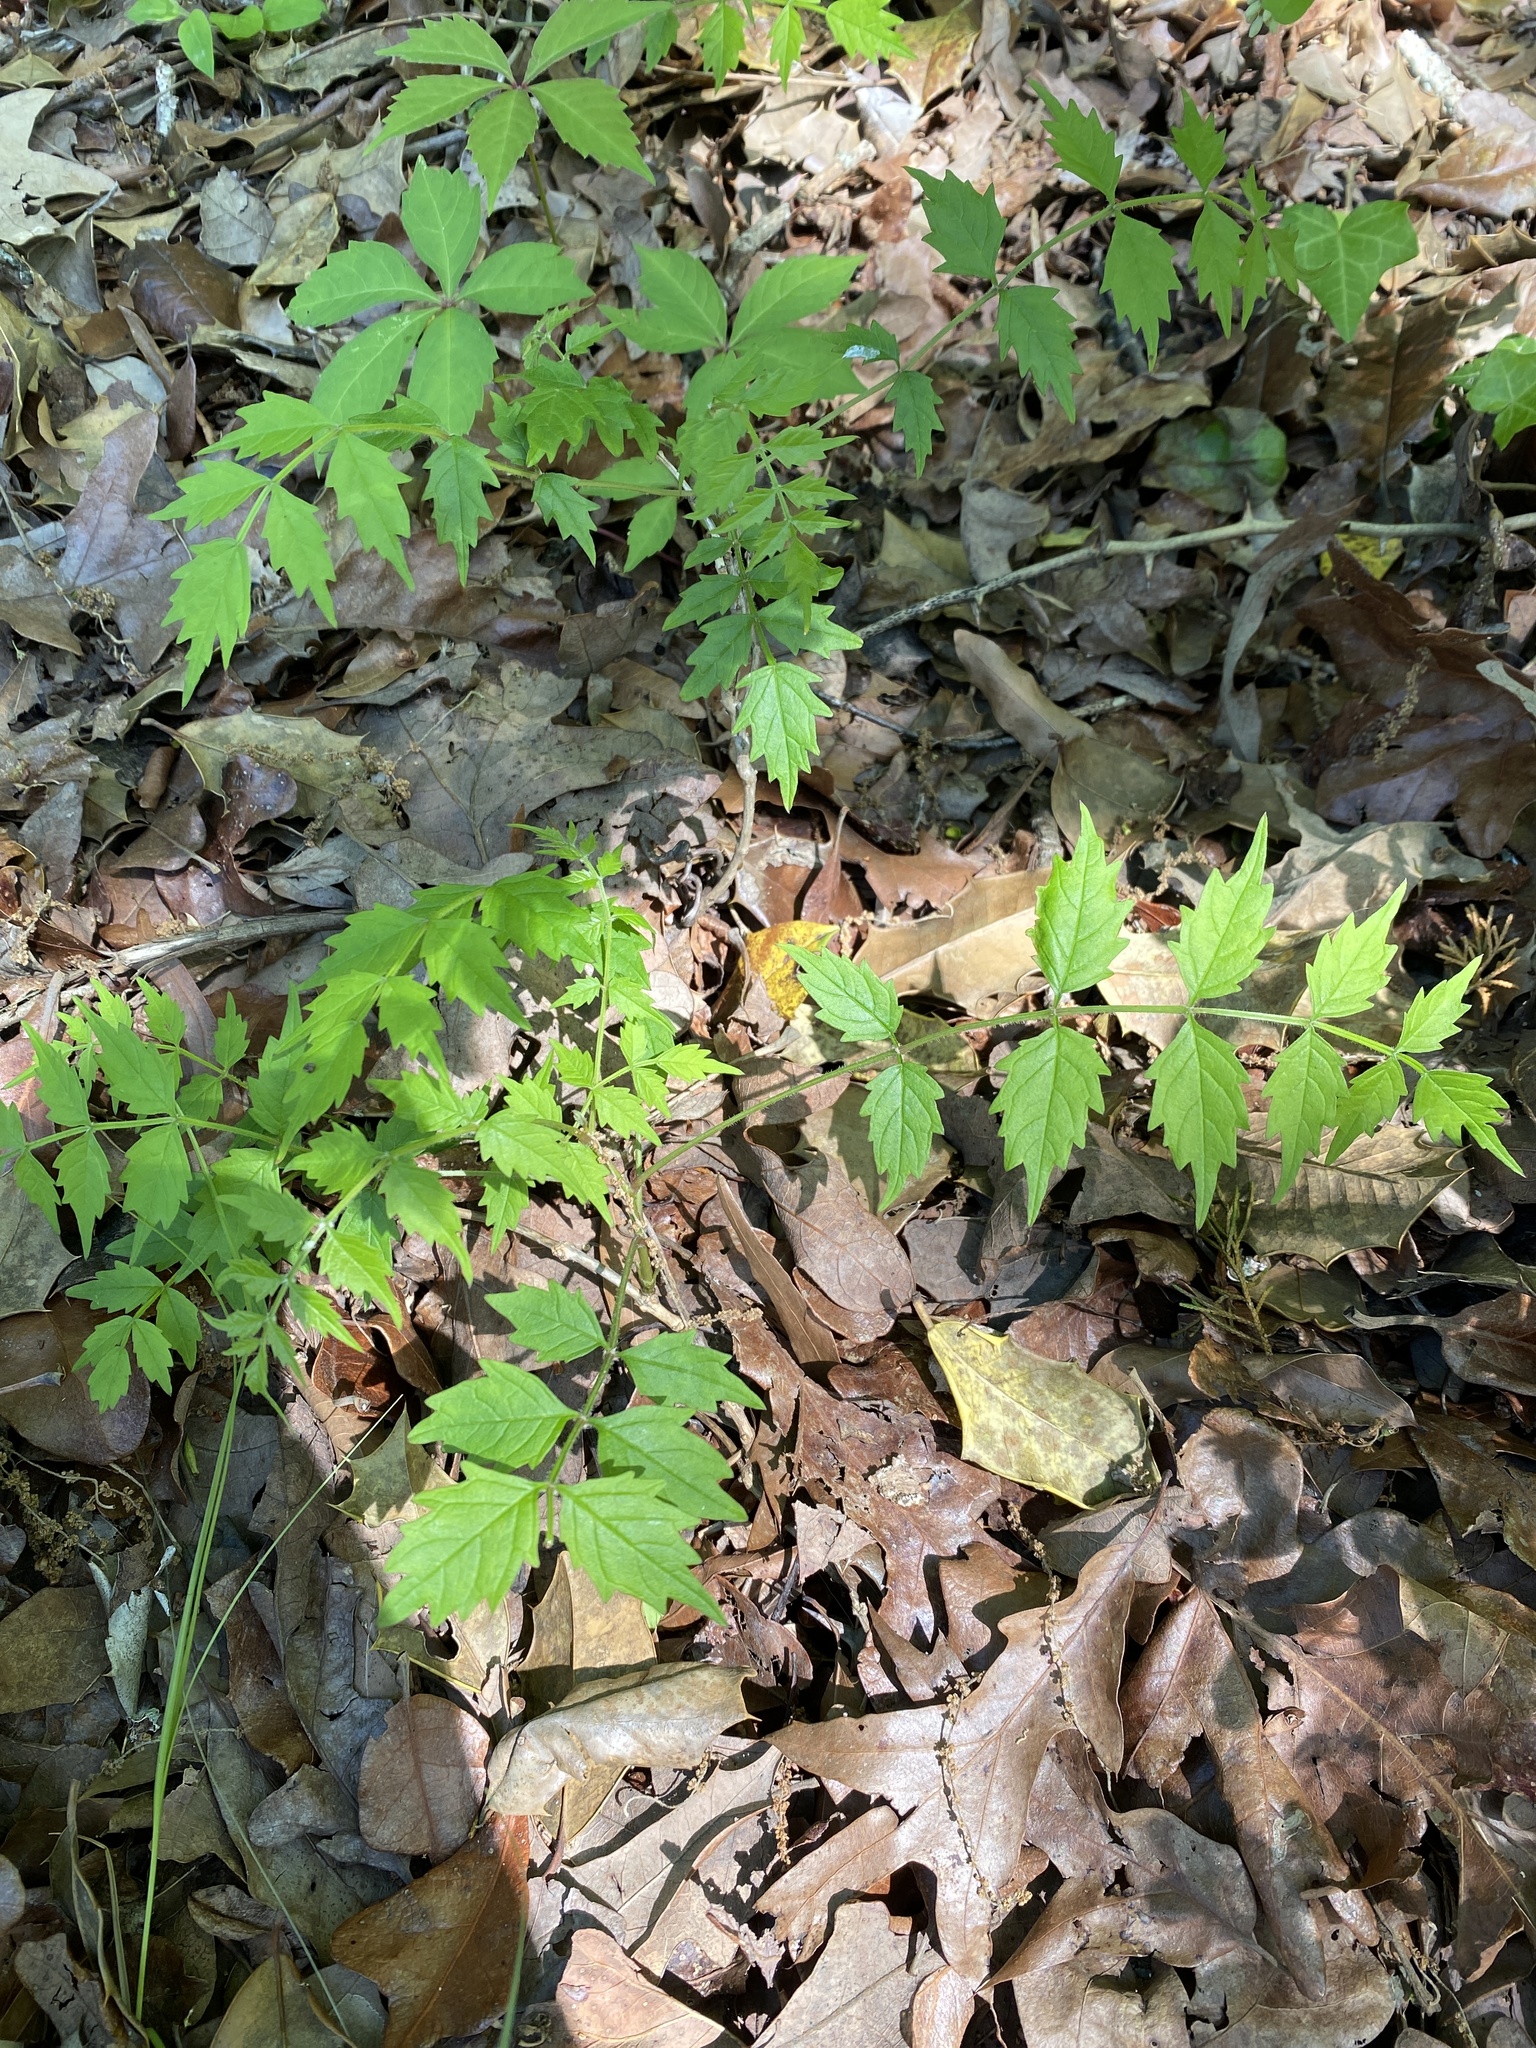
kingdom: Plantae
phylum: Tracheophyta
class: Magnoliopsida
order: Lamiales
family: Bignoniaceae
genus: Campsis
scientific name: Campsis radicans
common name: Trumpet-creeper
